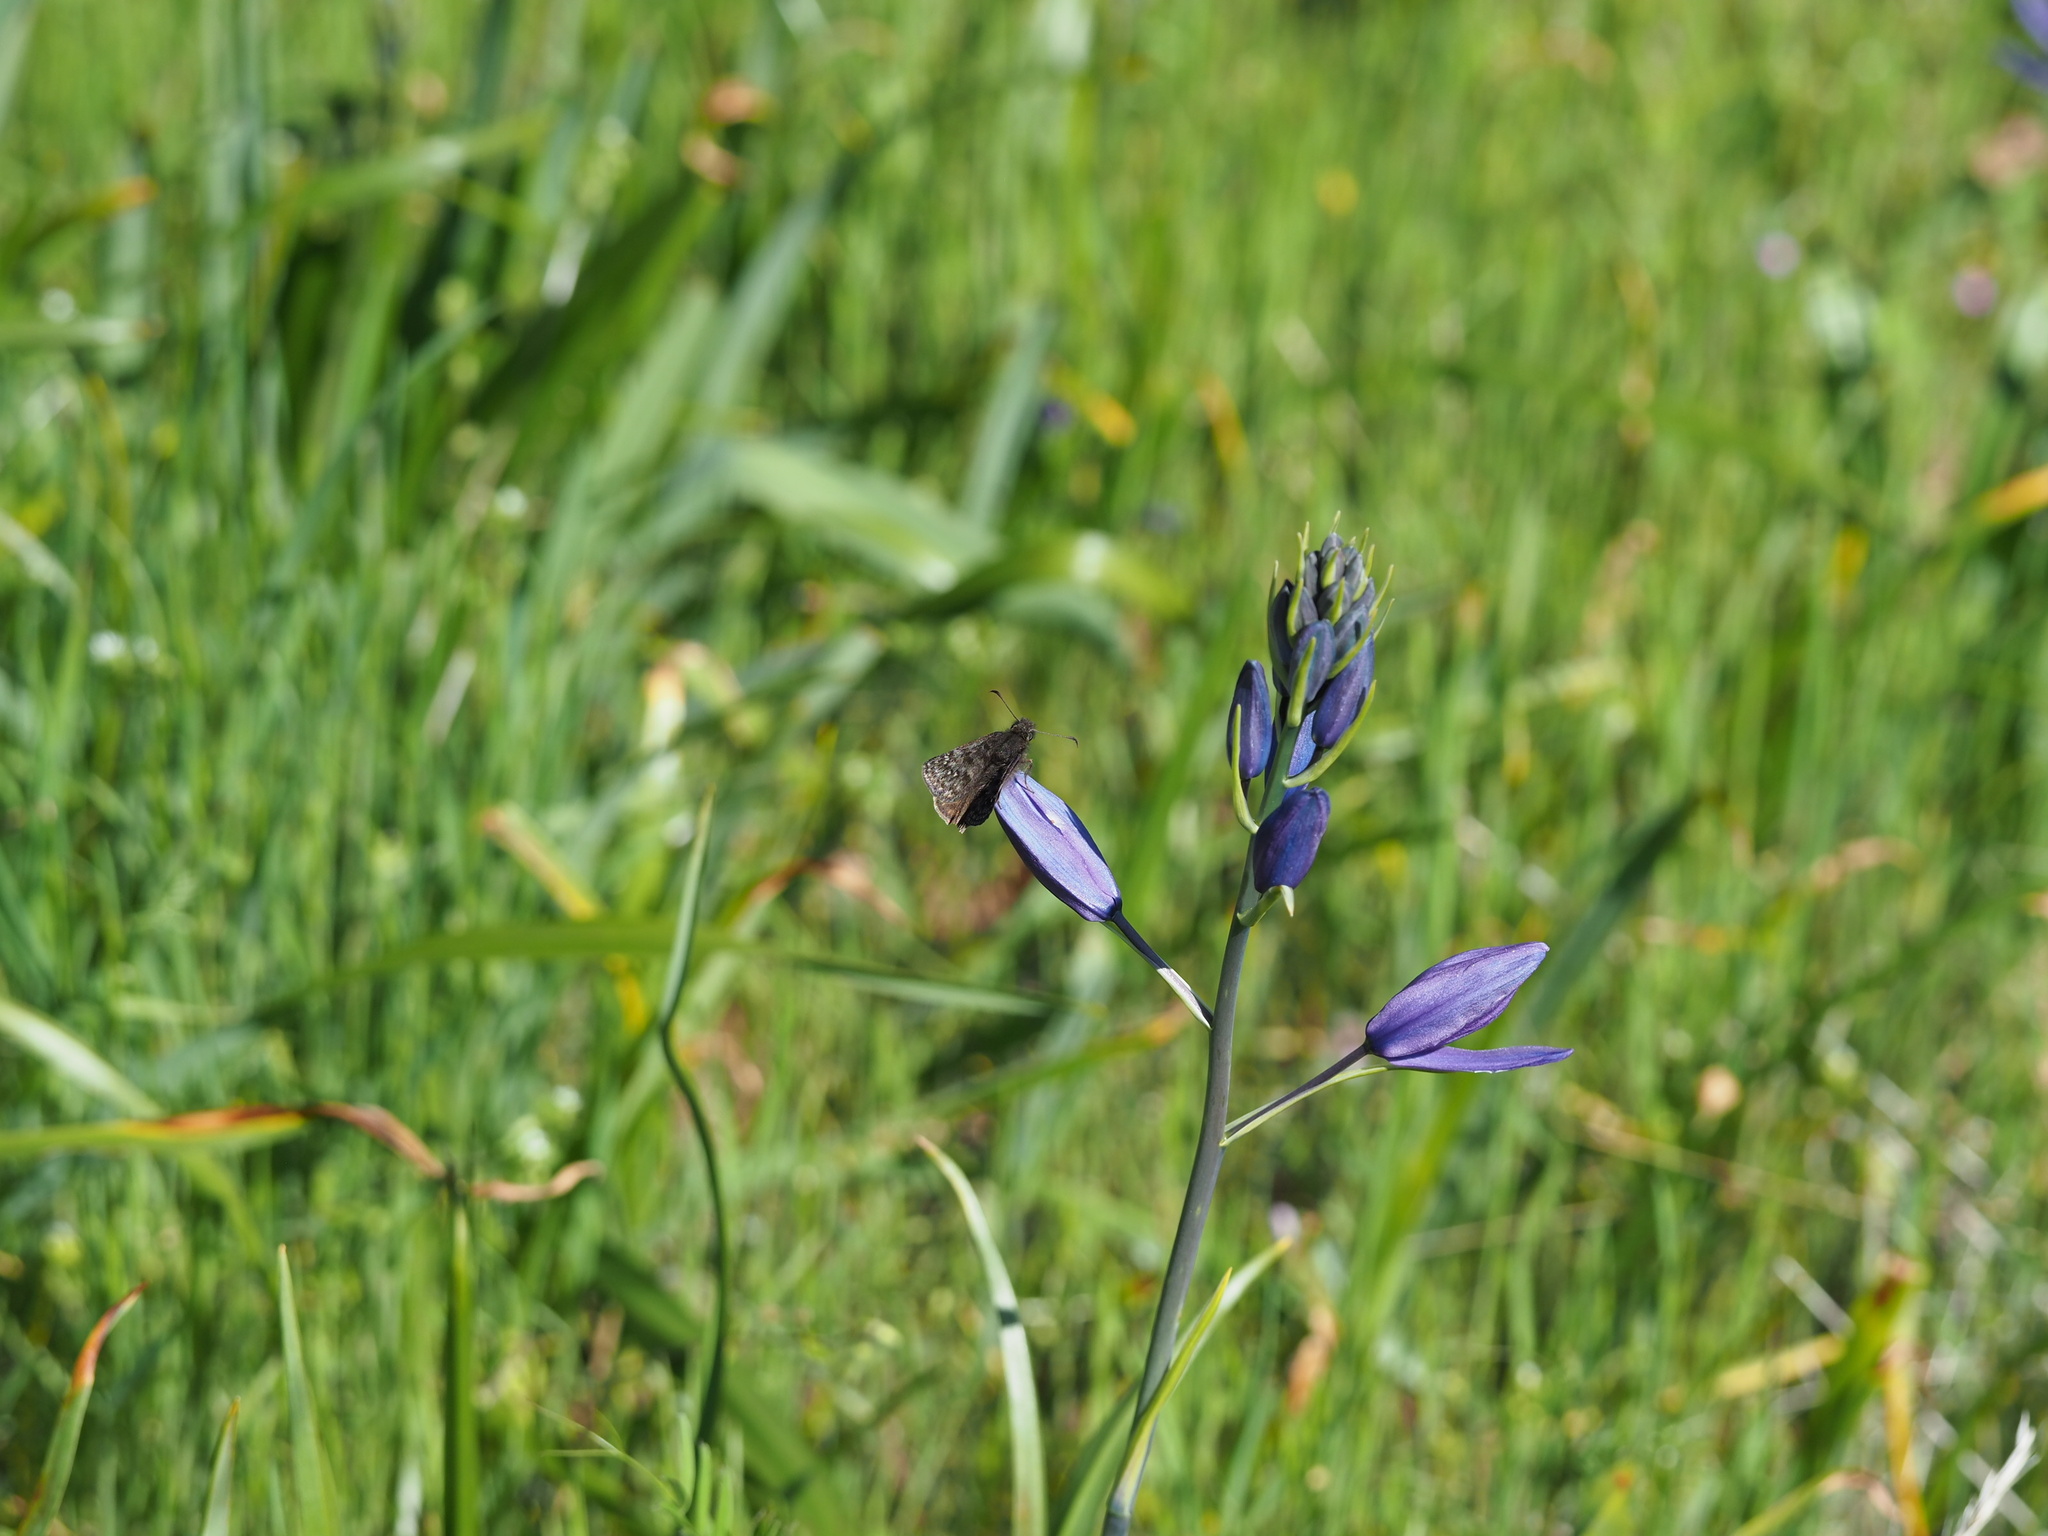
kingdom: Animalia
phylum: Arthropoda
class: Insecta
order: Lepidoptera
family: Hesperiidae
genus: Erynnis
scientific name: Erynnis propertius
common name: Propertius duskywing
